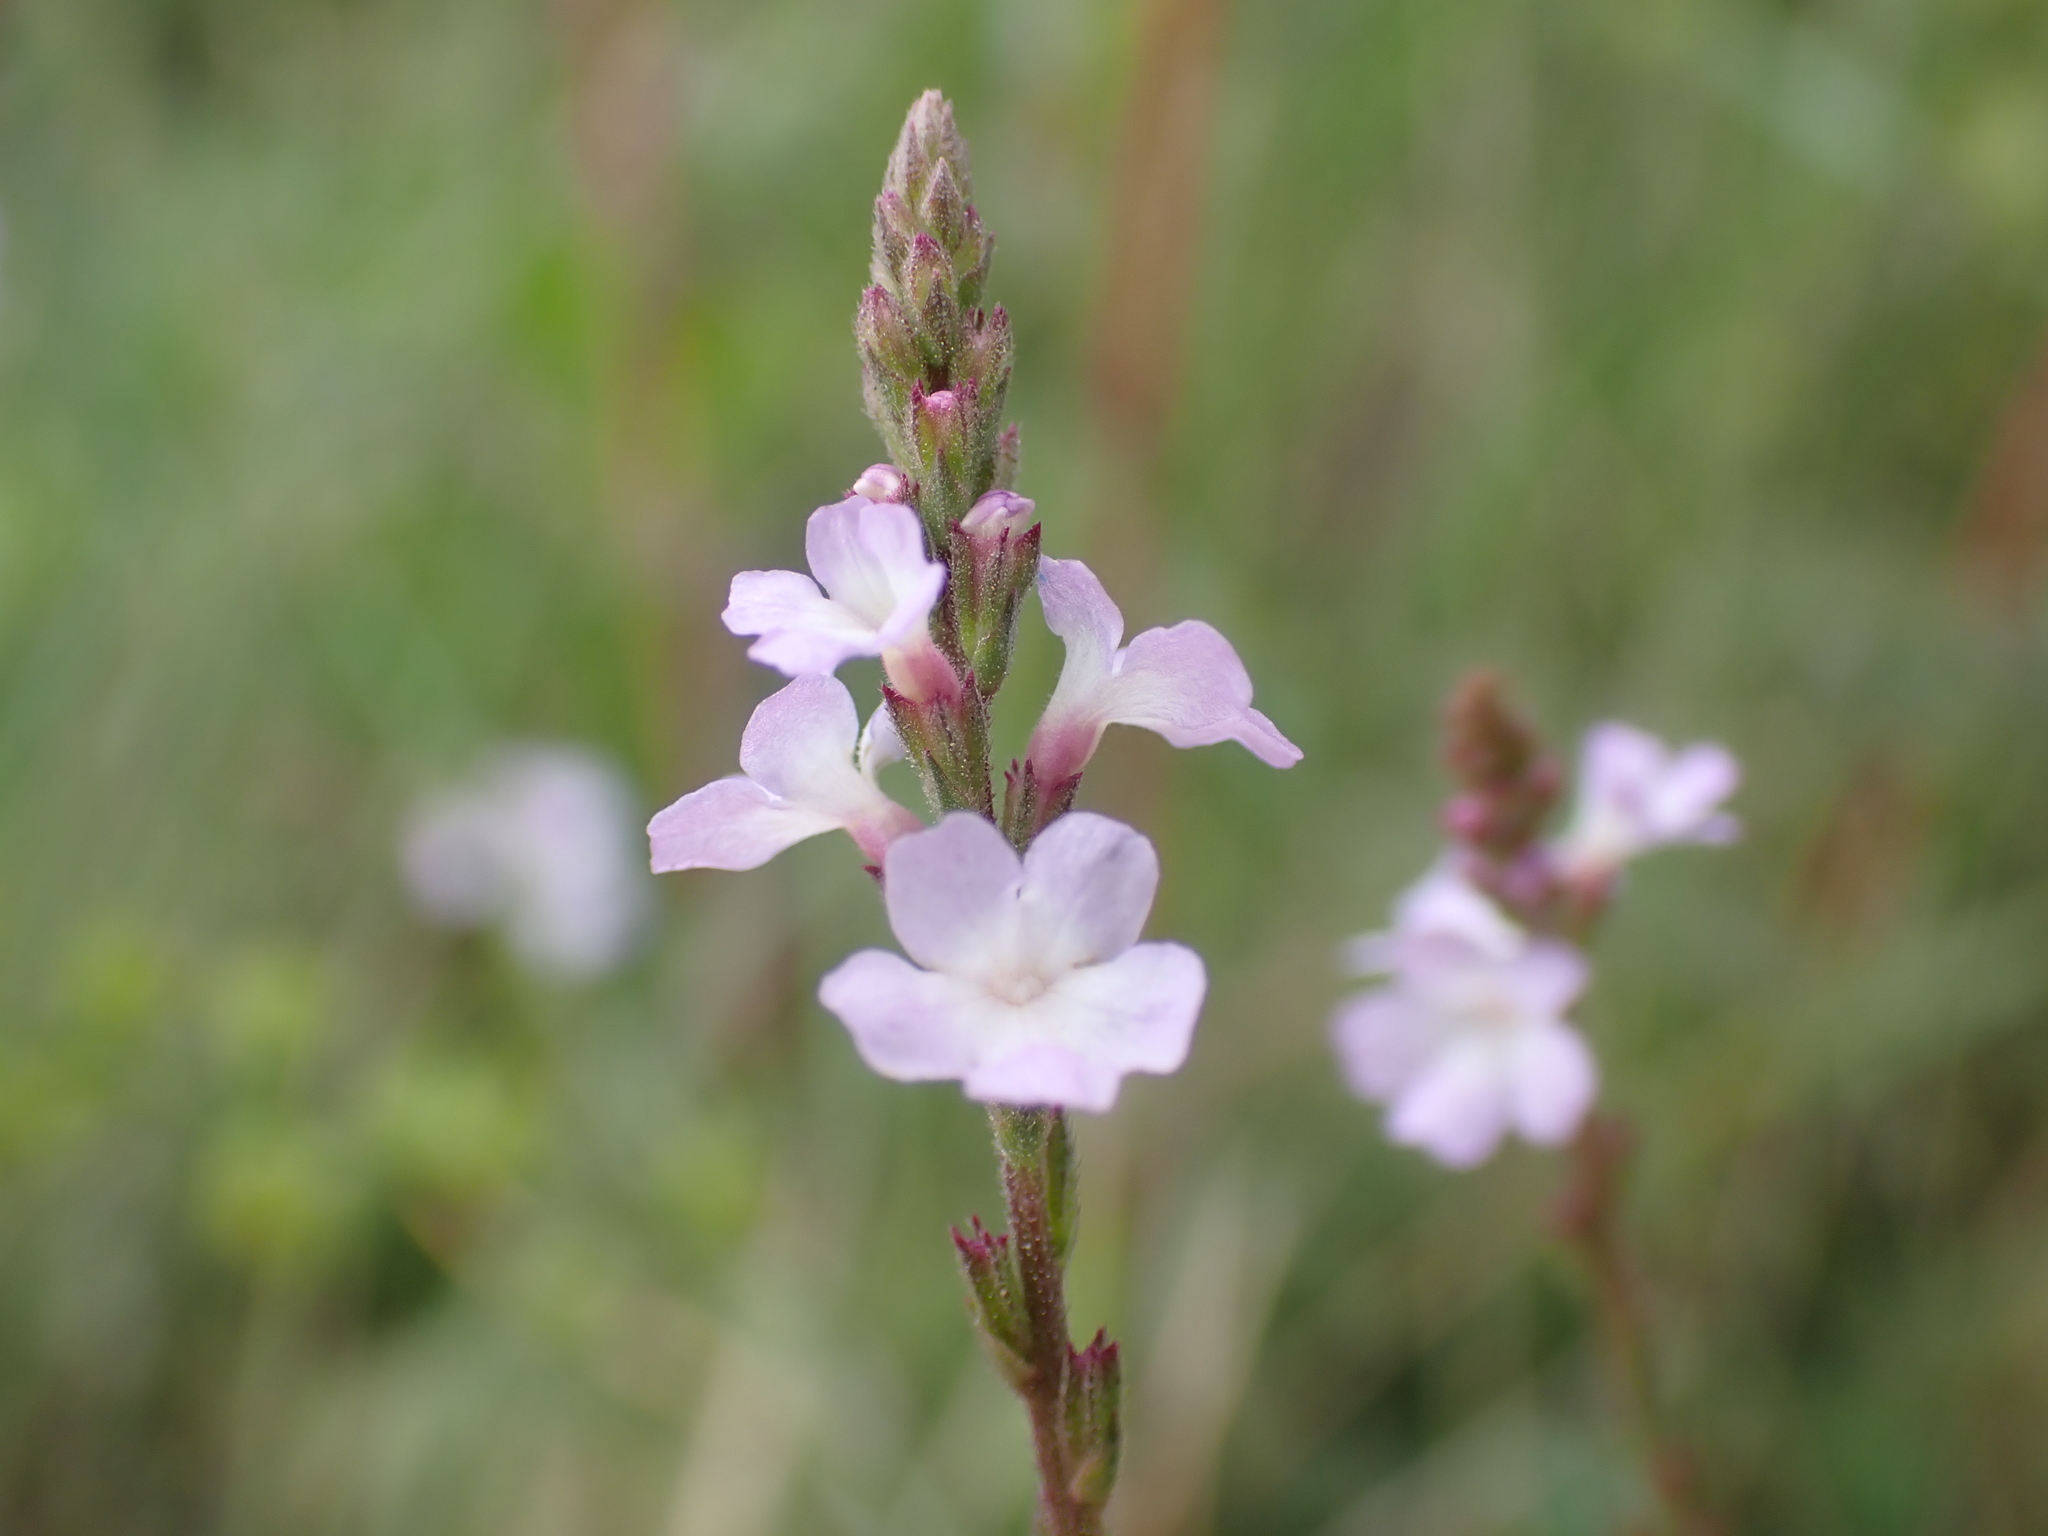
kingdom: Plantae
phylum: Tracheophyta
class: Magnoliopsida
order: Lamiales
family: Verbenaceae
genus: Verbena
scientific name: Verbena officinalis
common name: Vervain
